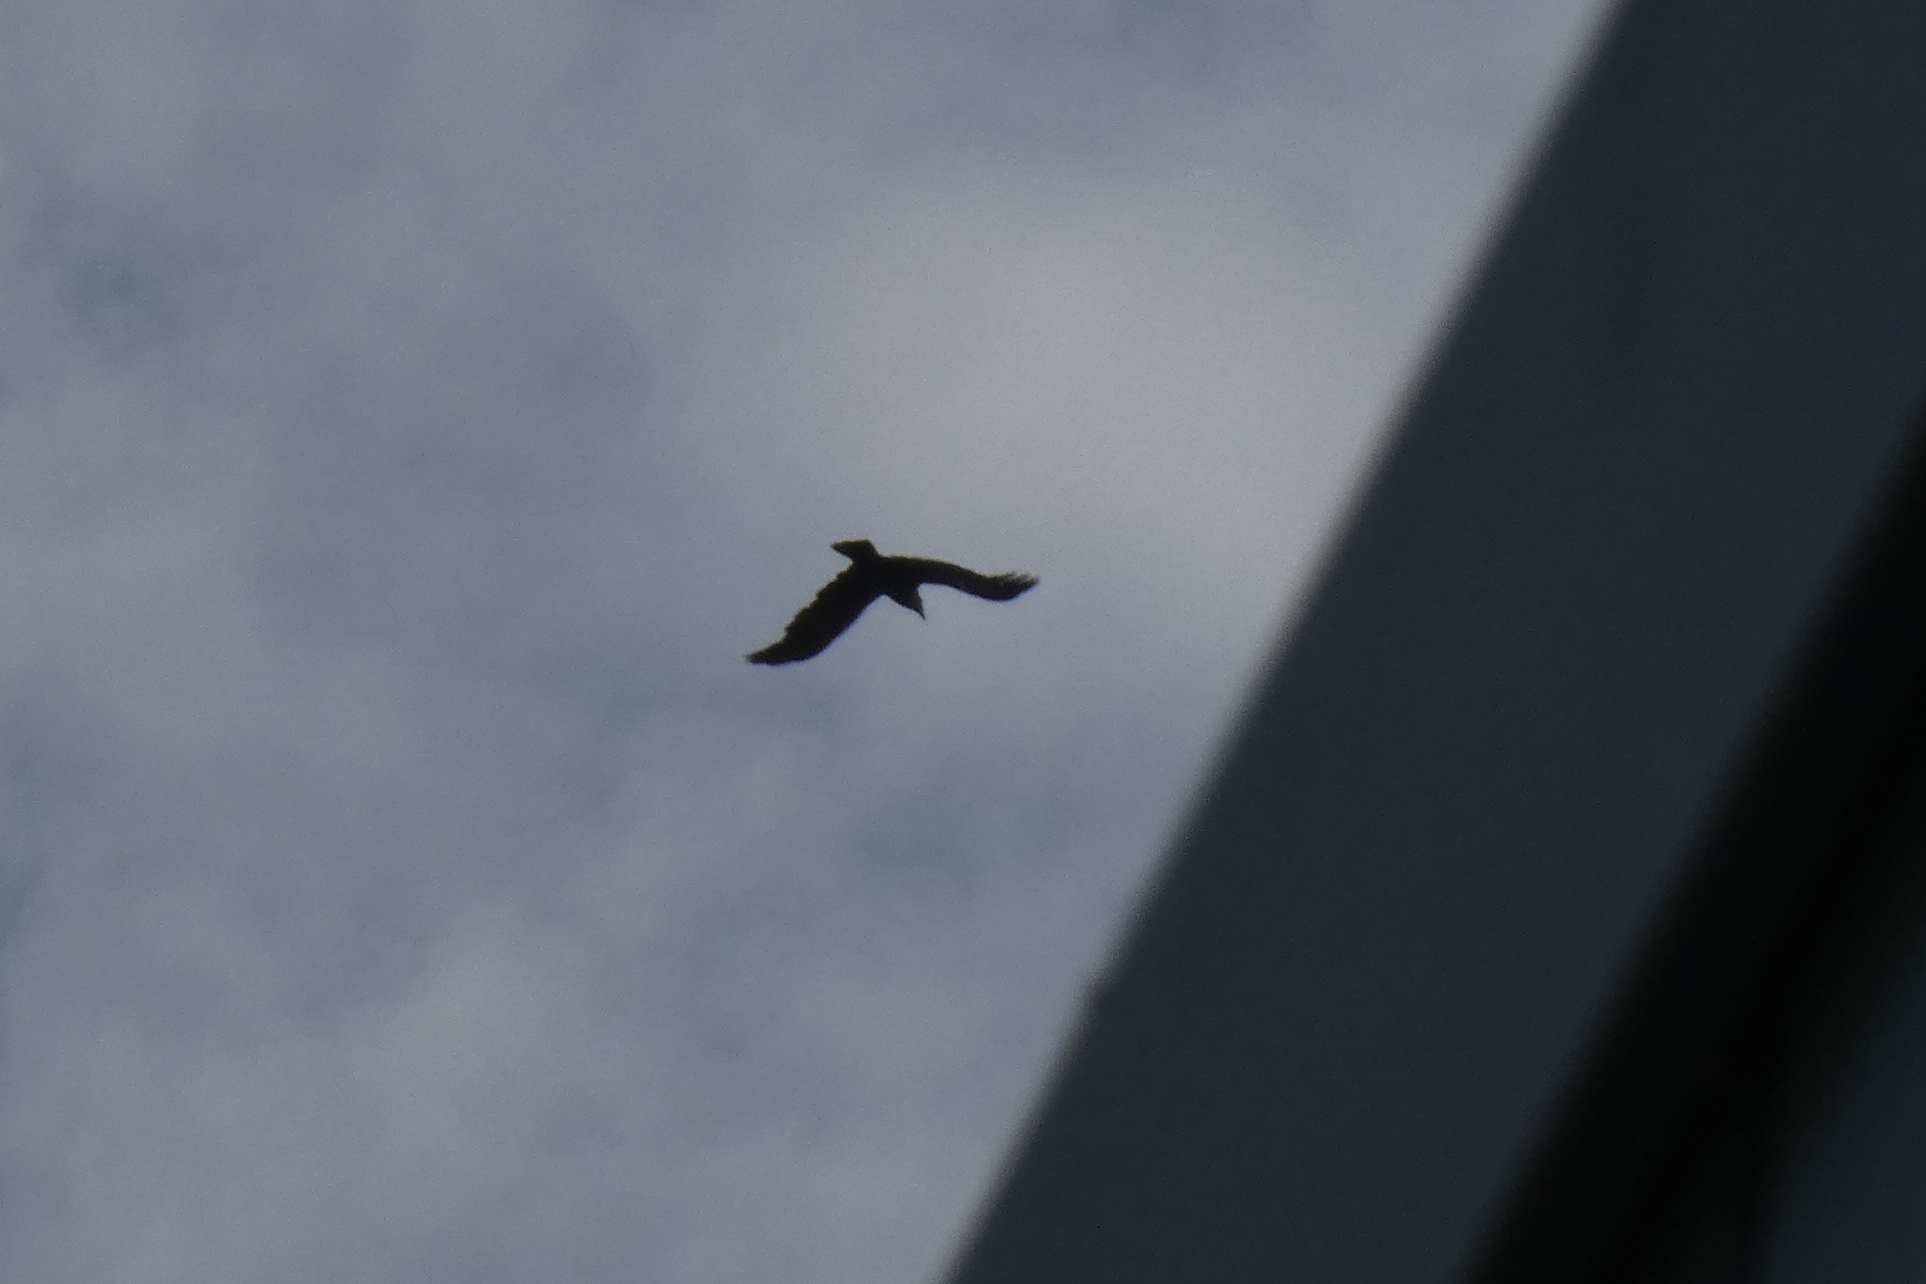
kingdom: Animalia
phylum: Chordata
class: Aves
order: Passeriformes
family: Corvidae
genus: Corvus
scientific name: Corvus brachyrhynchos
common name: American crow
